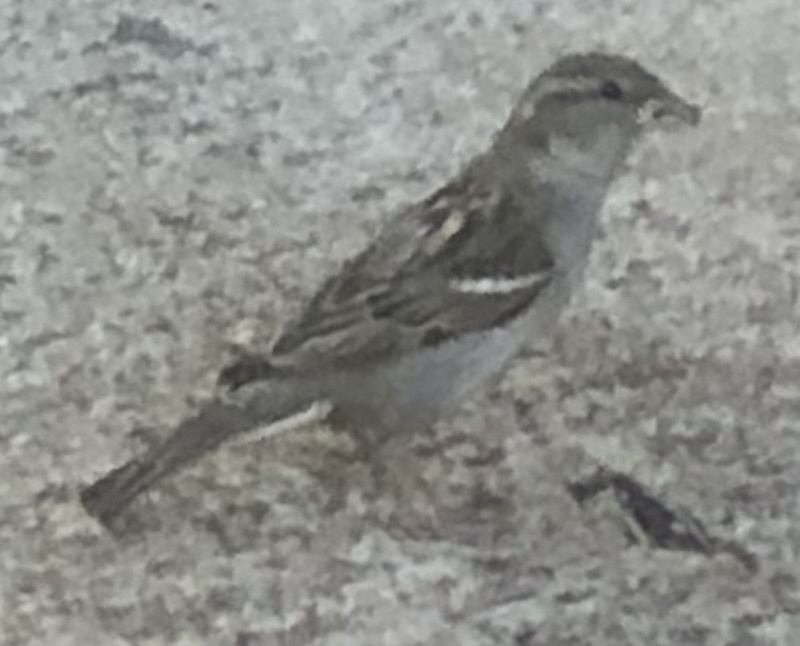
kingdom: Animalia
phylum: Chordata
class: Aves
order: Passeriformes
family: Passeridae
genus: Passer
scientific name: Passer domesticus
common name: House sparrow
